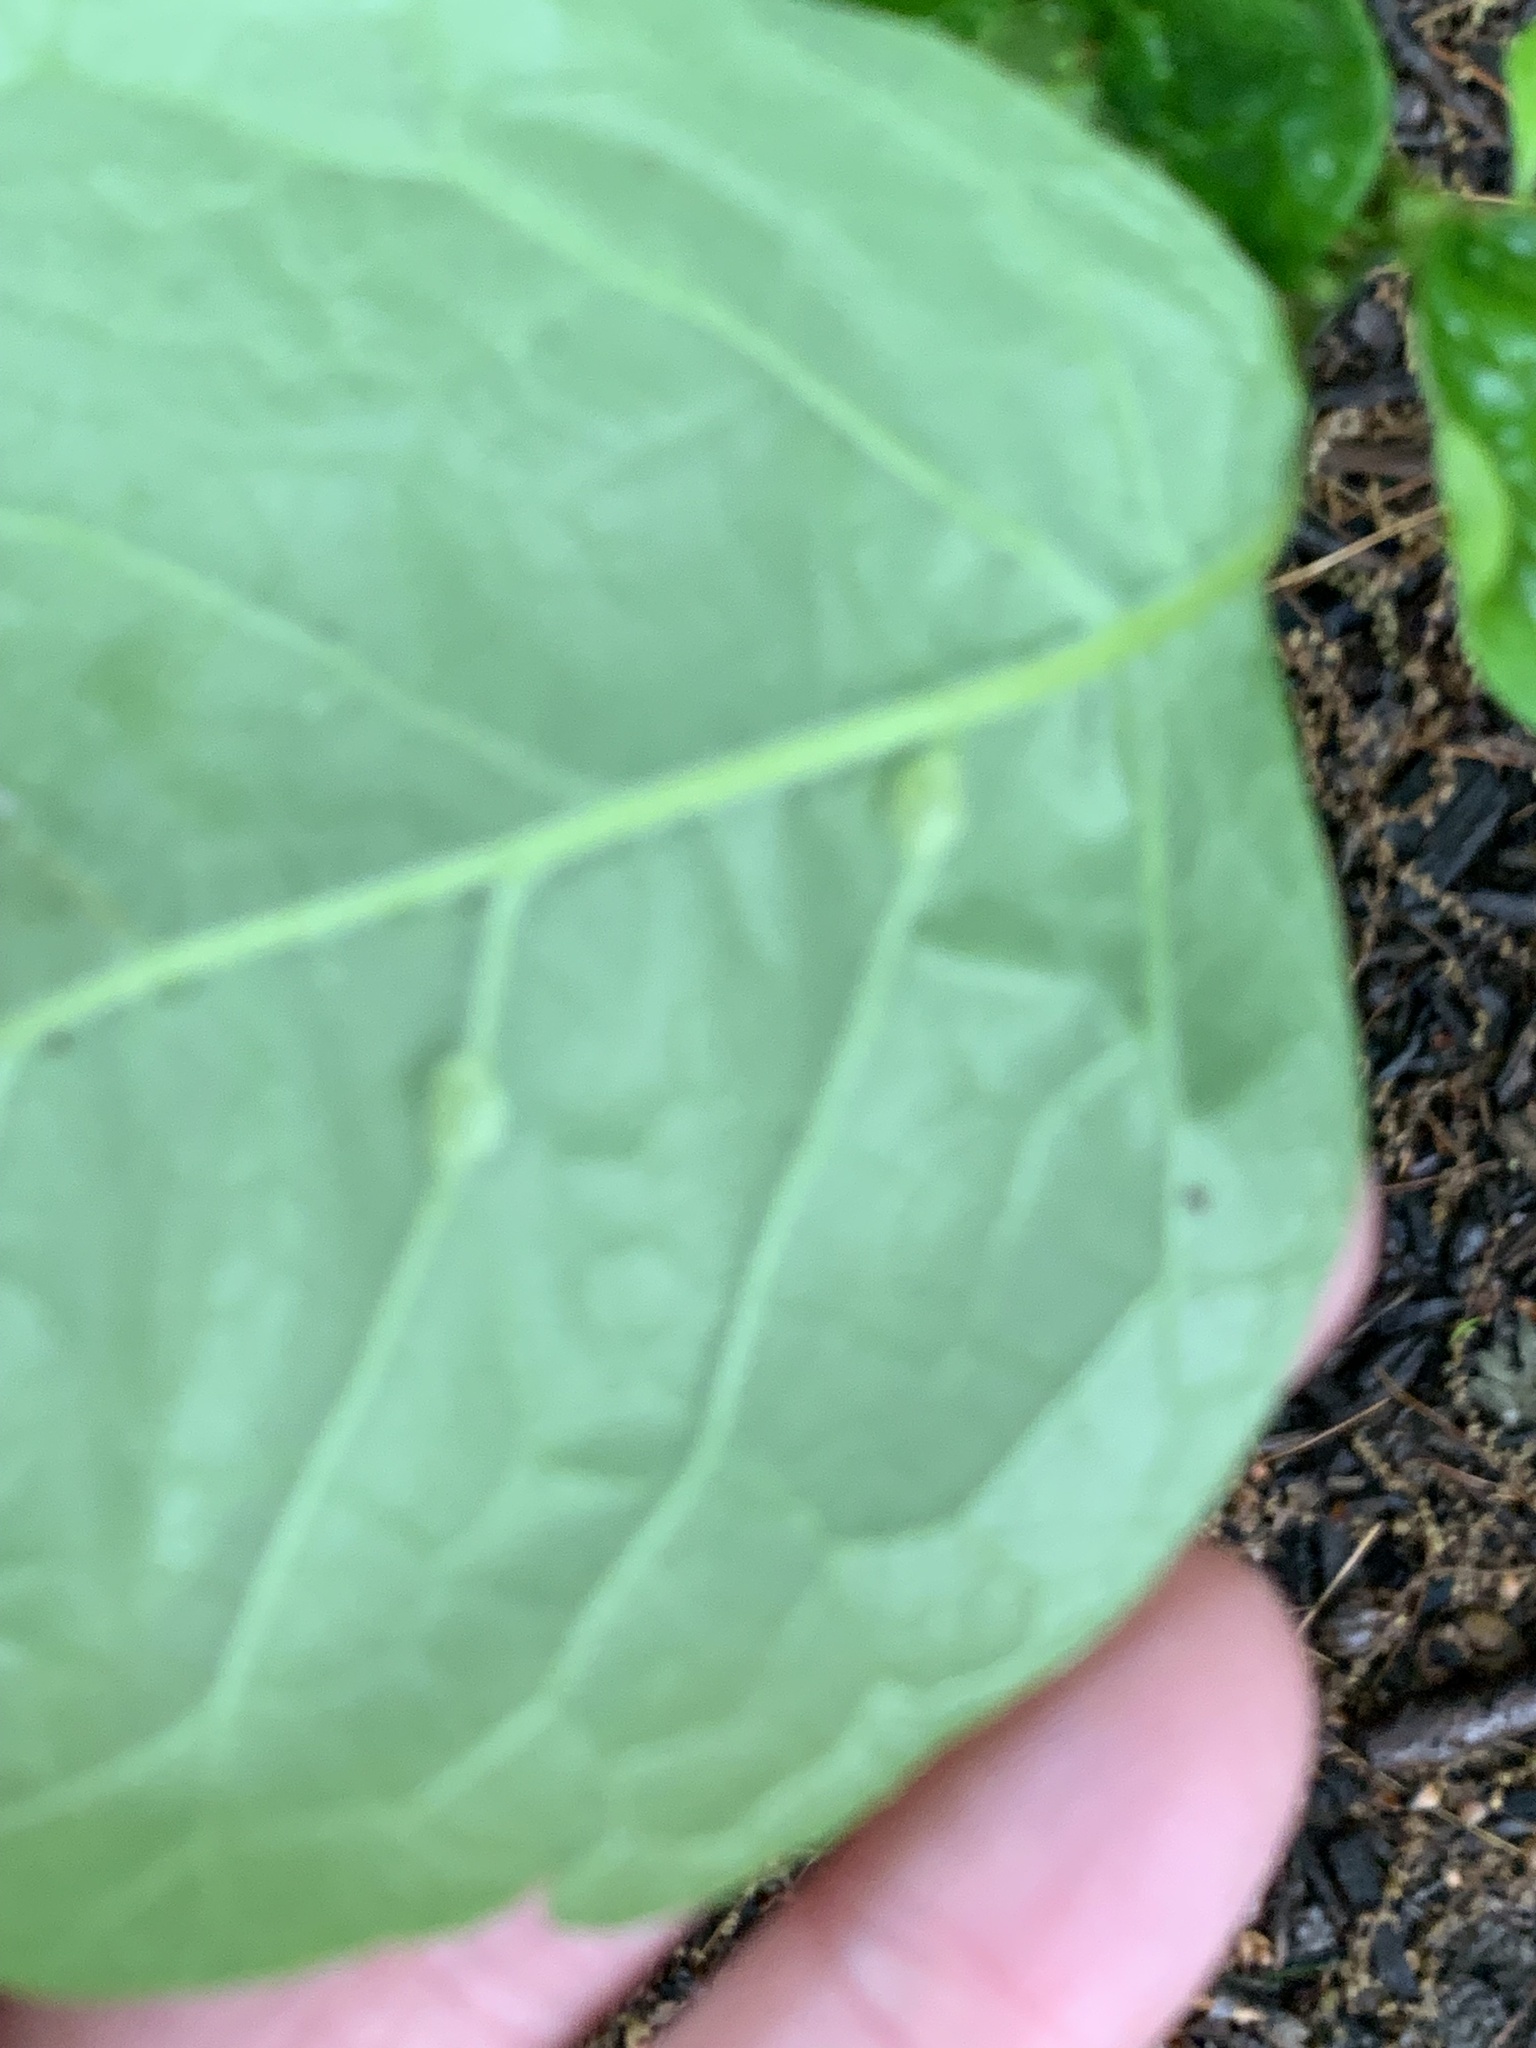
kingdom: Animalia
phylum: Arthropoda
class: Insecta
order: Diptera
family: Cecidomyiidae
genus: Dasineura
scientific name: Dasineura pellex
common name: Ash bullet gall midge
